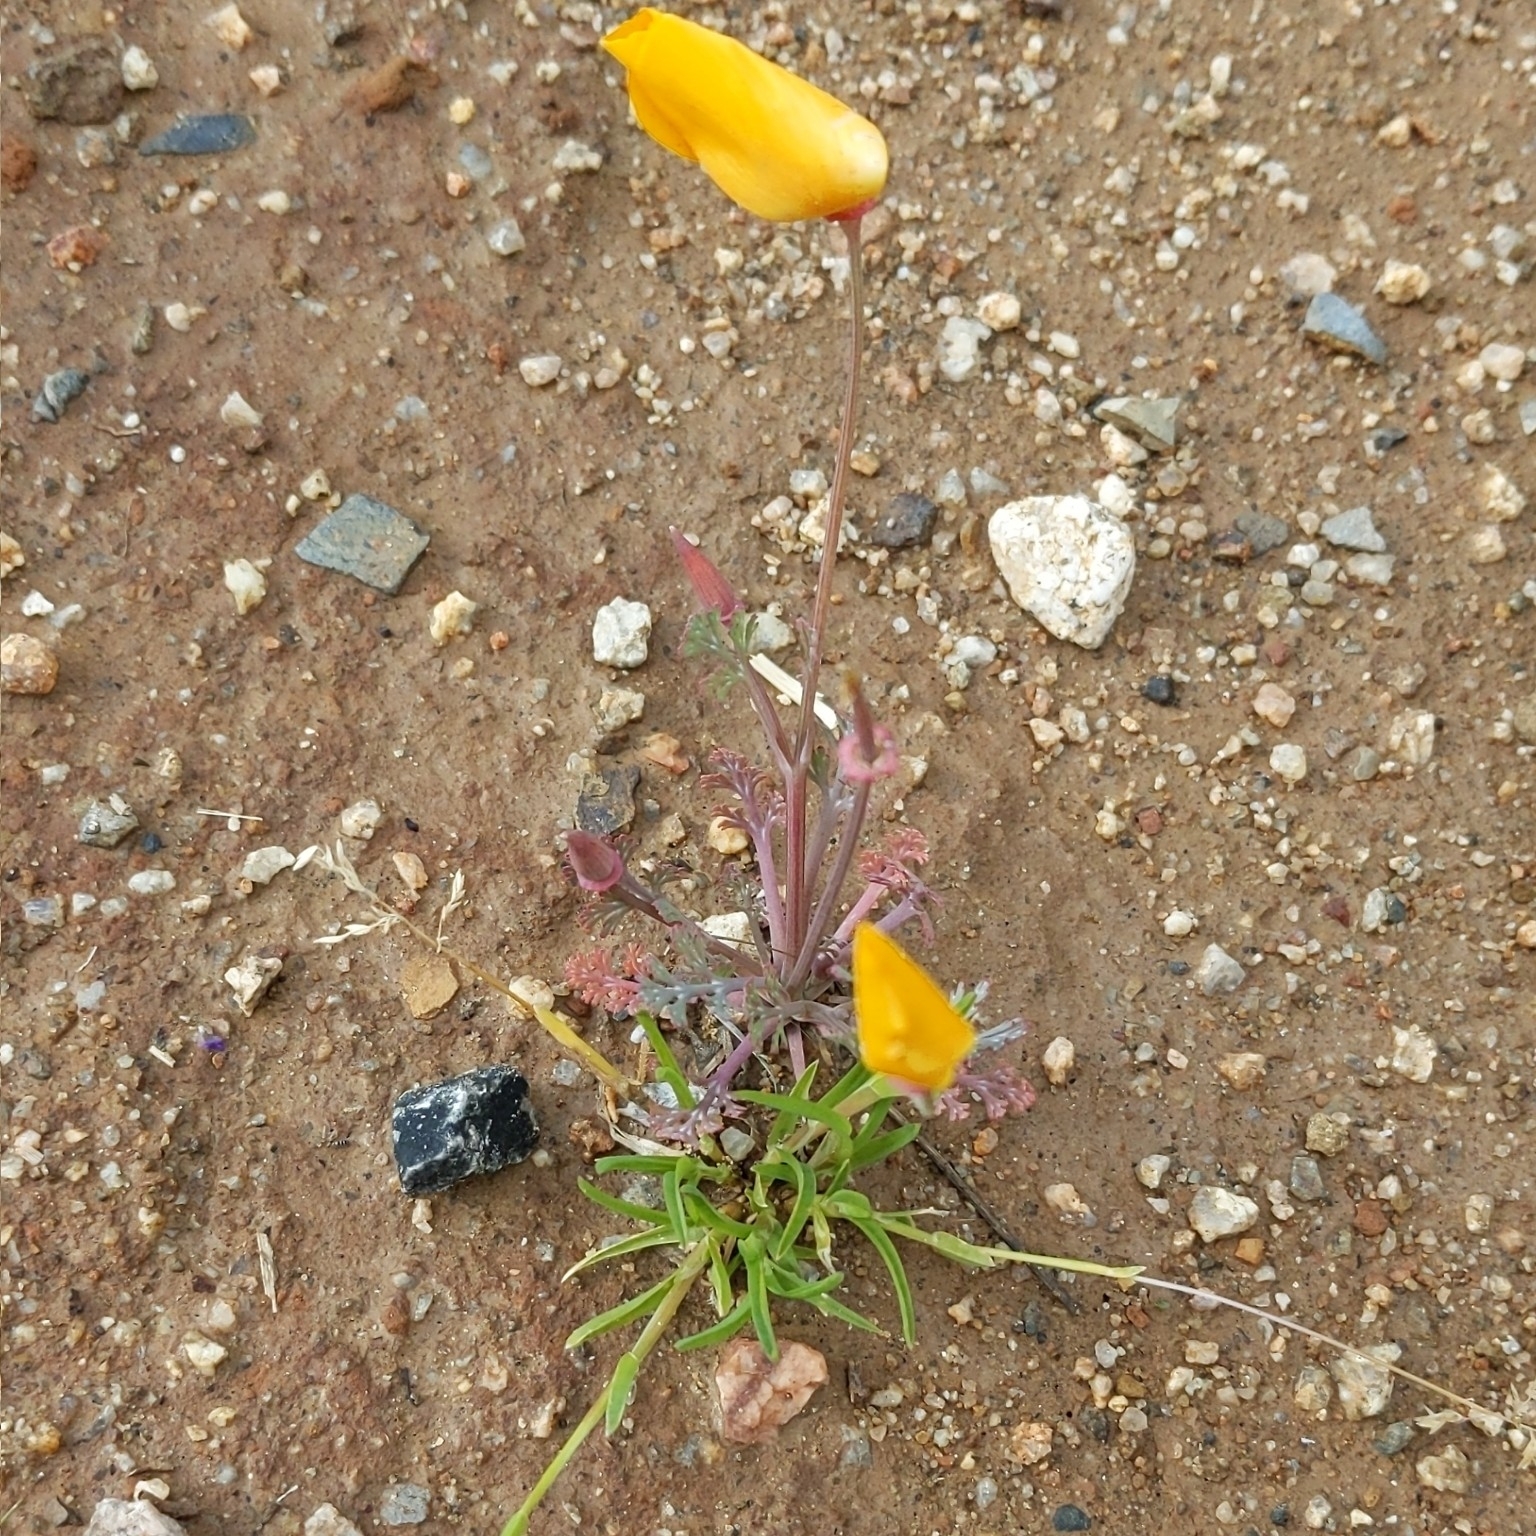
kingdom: Plantae
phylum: Tracheophyta
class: Magnoliopsida
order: Ranunculales
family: Papaveraceae
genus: Eschscholzia
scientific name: Eschscholzia californica
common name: California poppy
